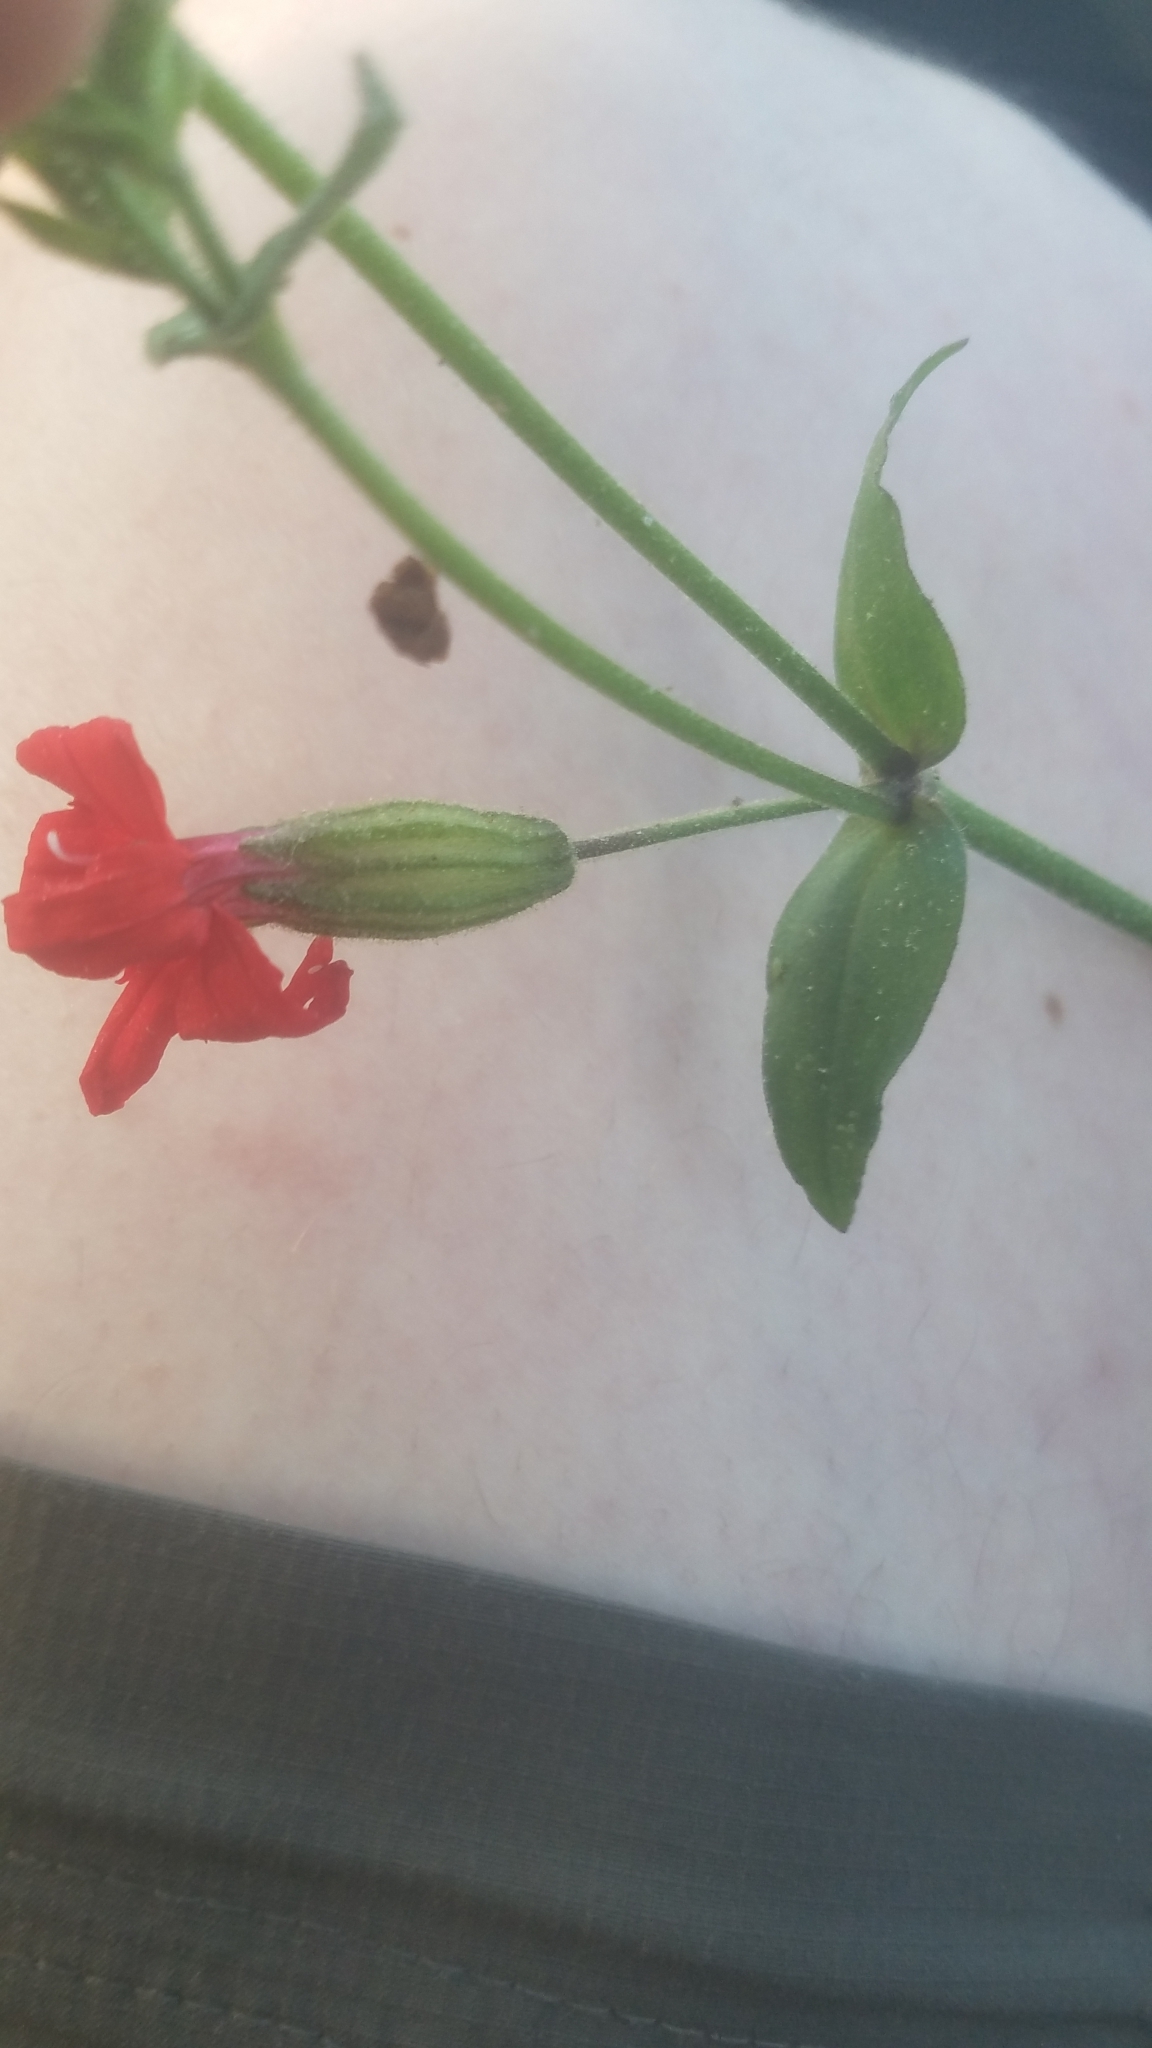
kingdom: Plantae
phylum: Tracheophyta
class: Magnoliopsida
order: Caryophyllales
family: Caryophyllaceae
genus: Silene
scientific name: Silene virginica
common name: Fire-pink
